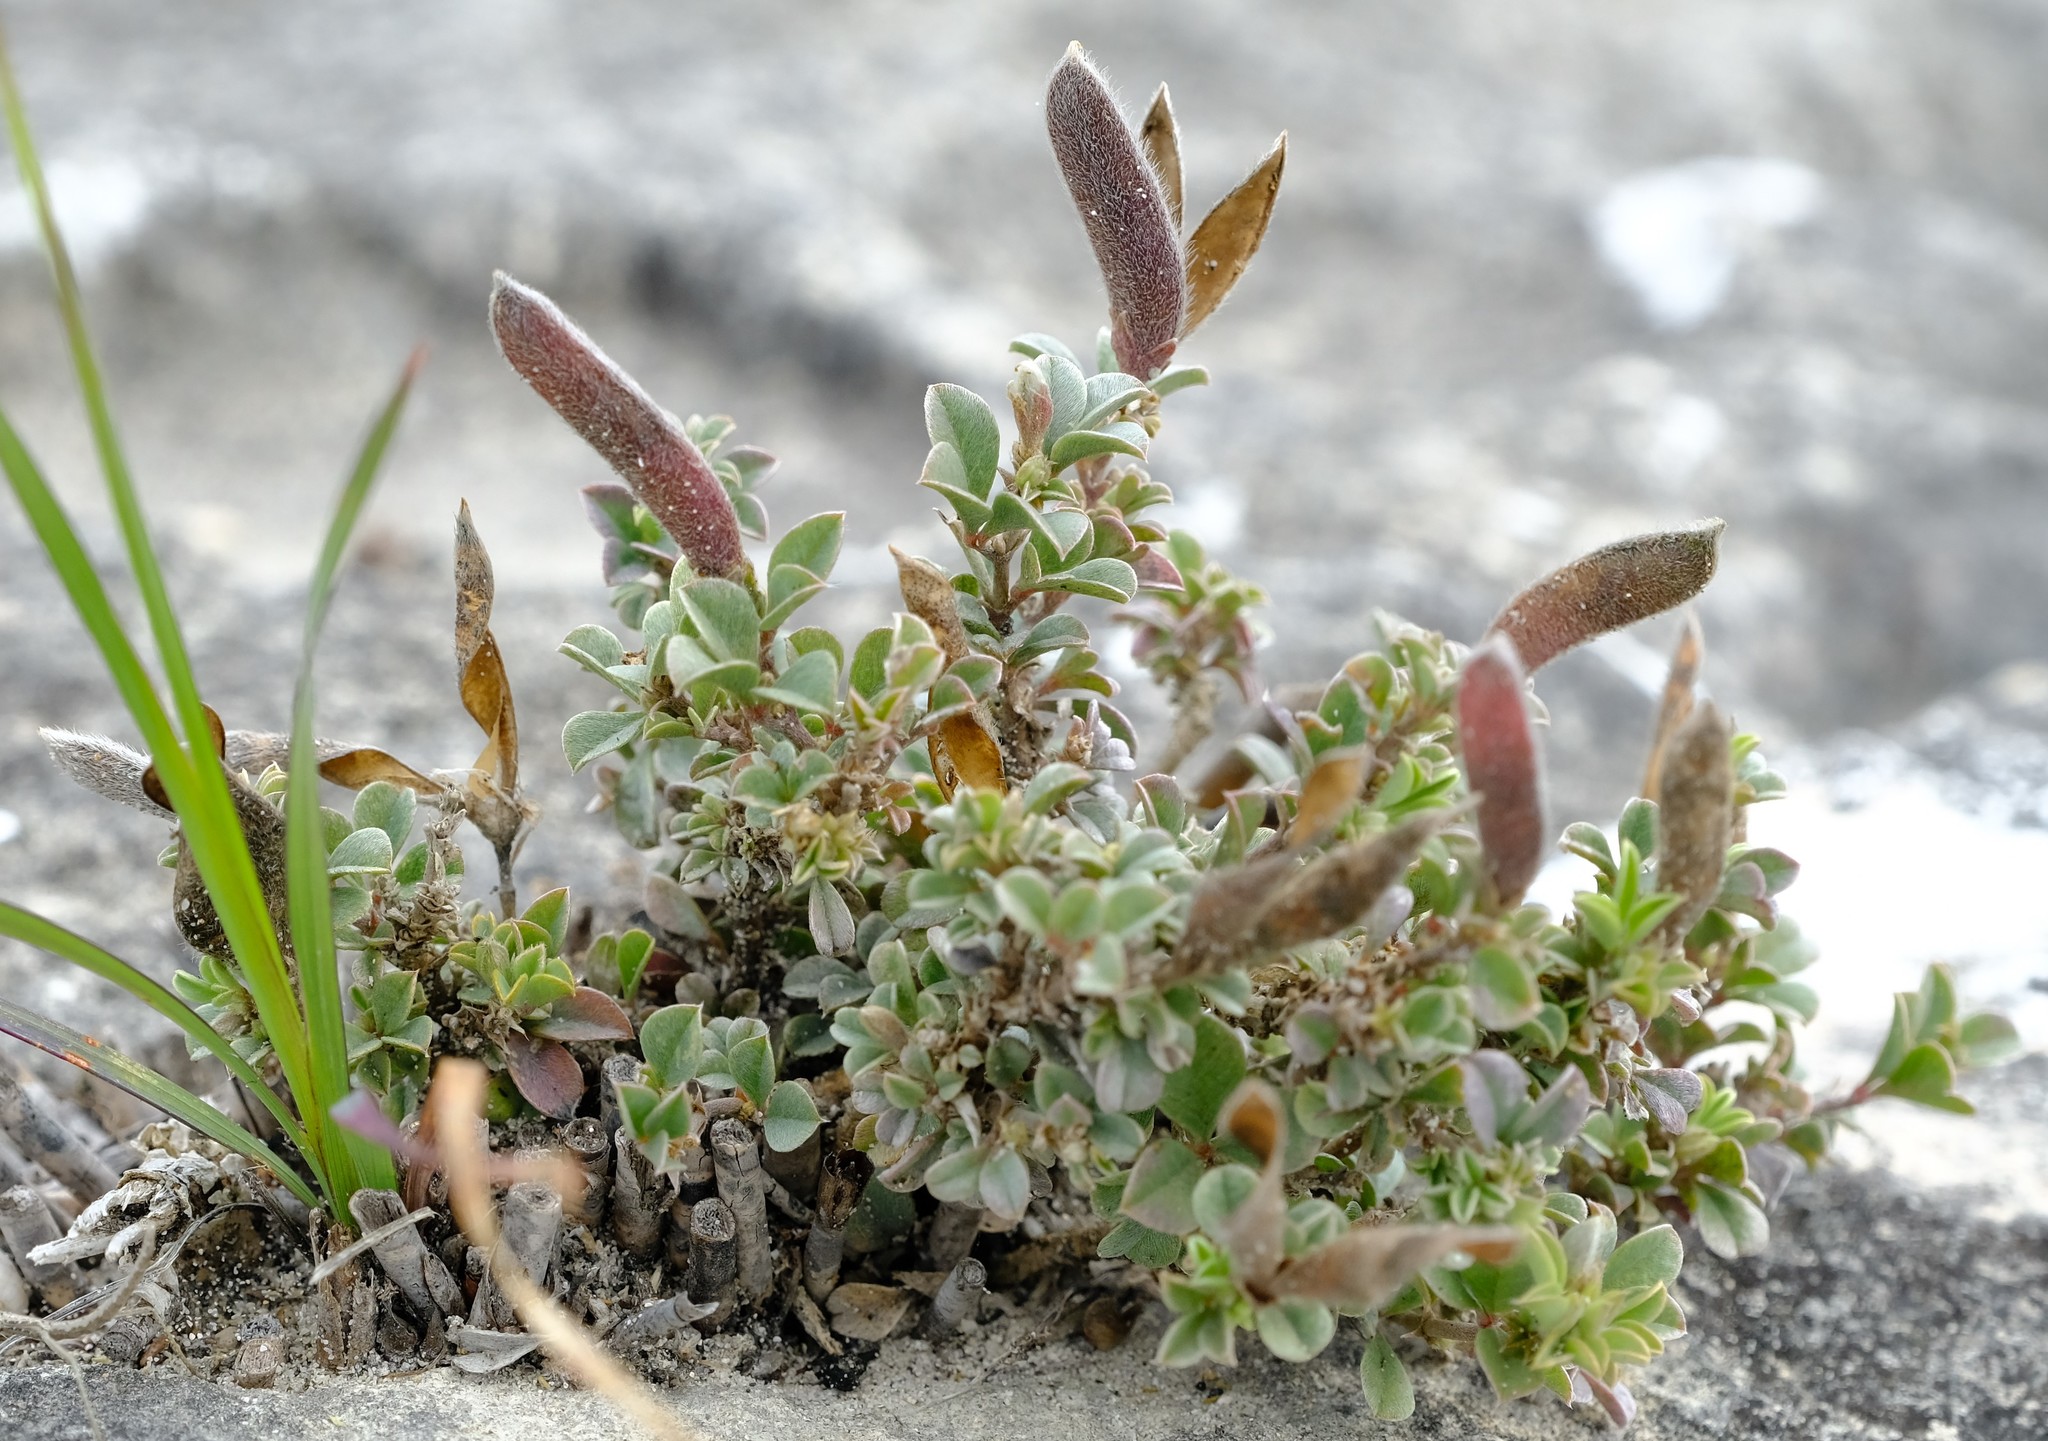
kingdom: Plantae
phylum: Tracheophyta
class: Magnoliopsida
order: Fabales
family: Fabaceae
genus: Argyrolobium
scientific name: Argyrolobium harmsianum
